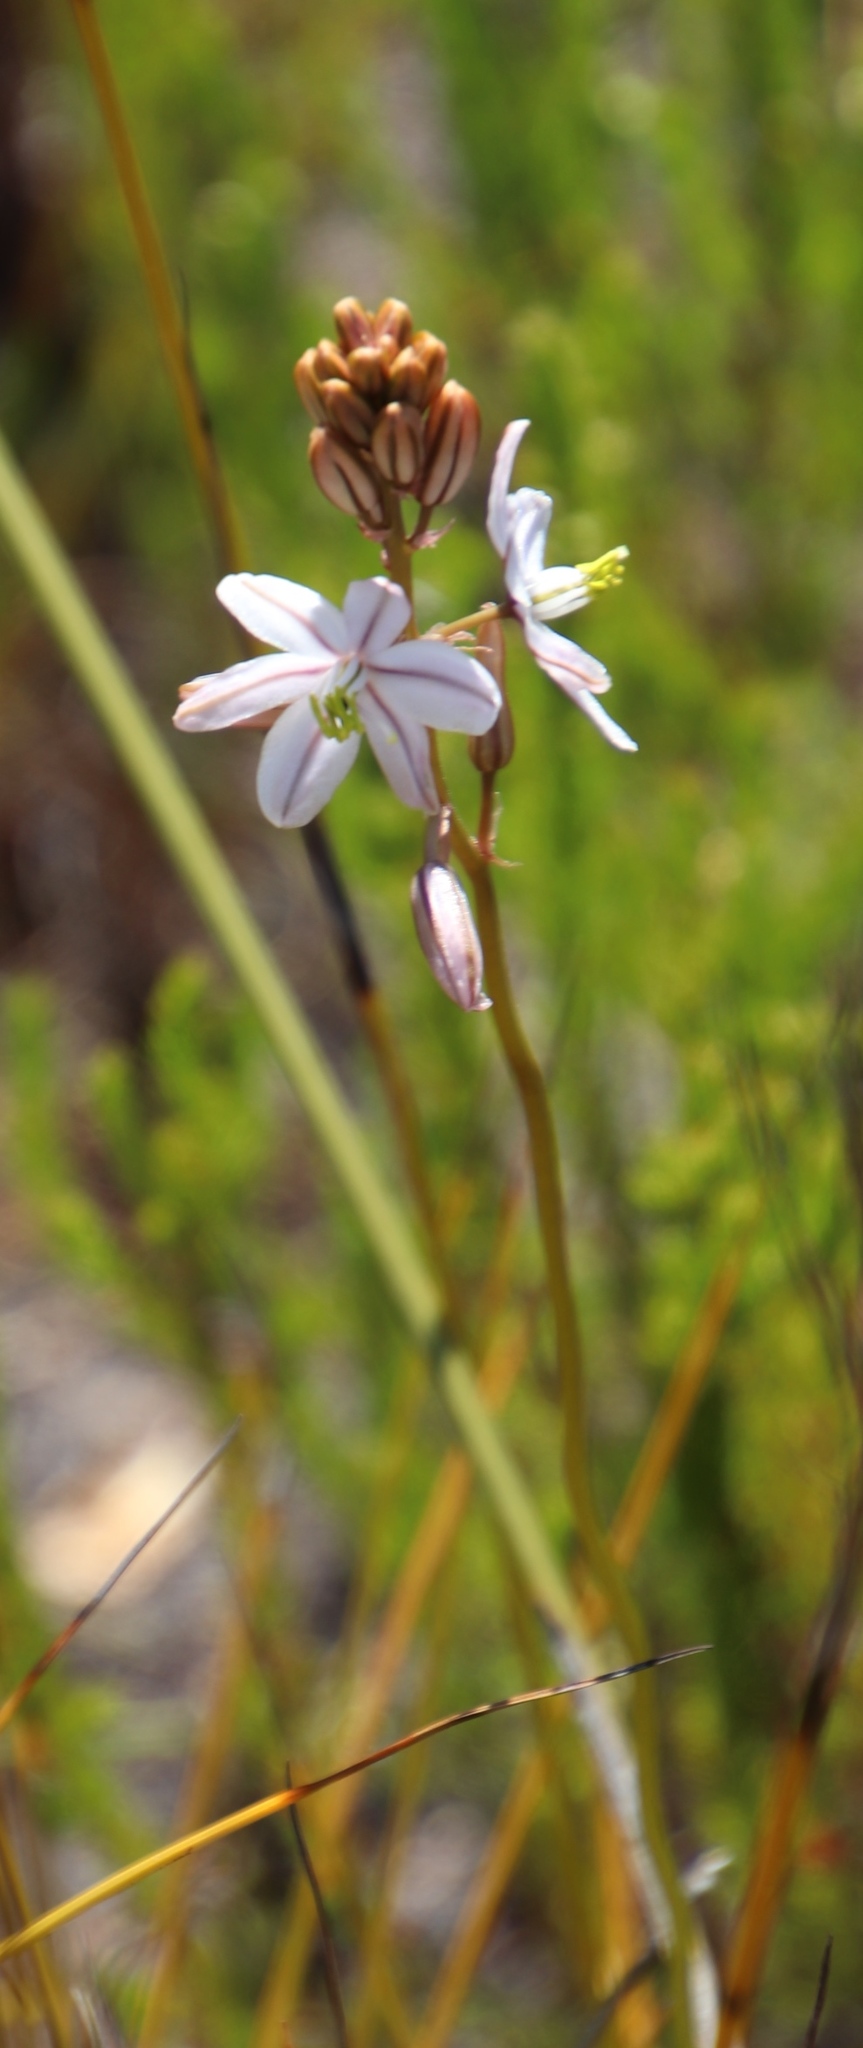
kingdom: Plantae
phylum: Tracheophyta
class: Liliopsida
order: Asparagales
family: Asparagaceae
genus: Drimia
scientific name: Drimia exuviata
